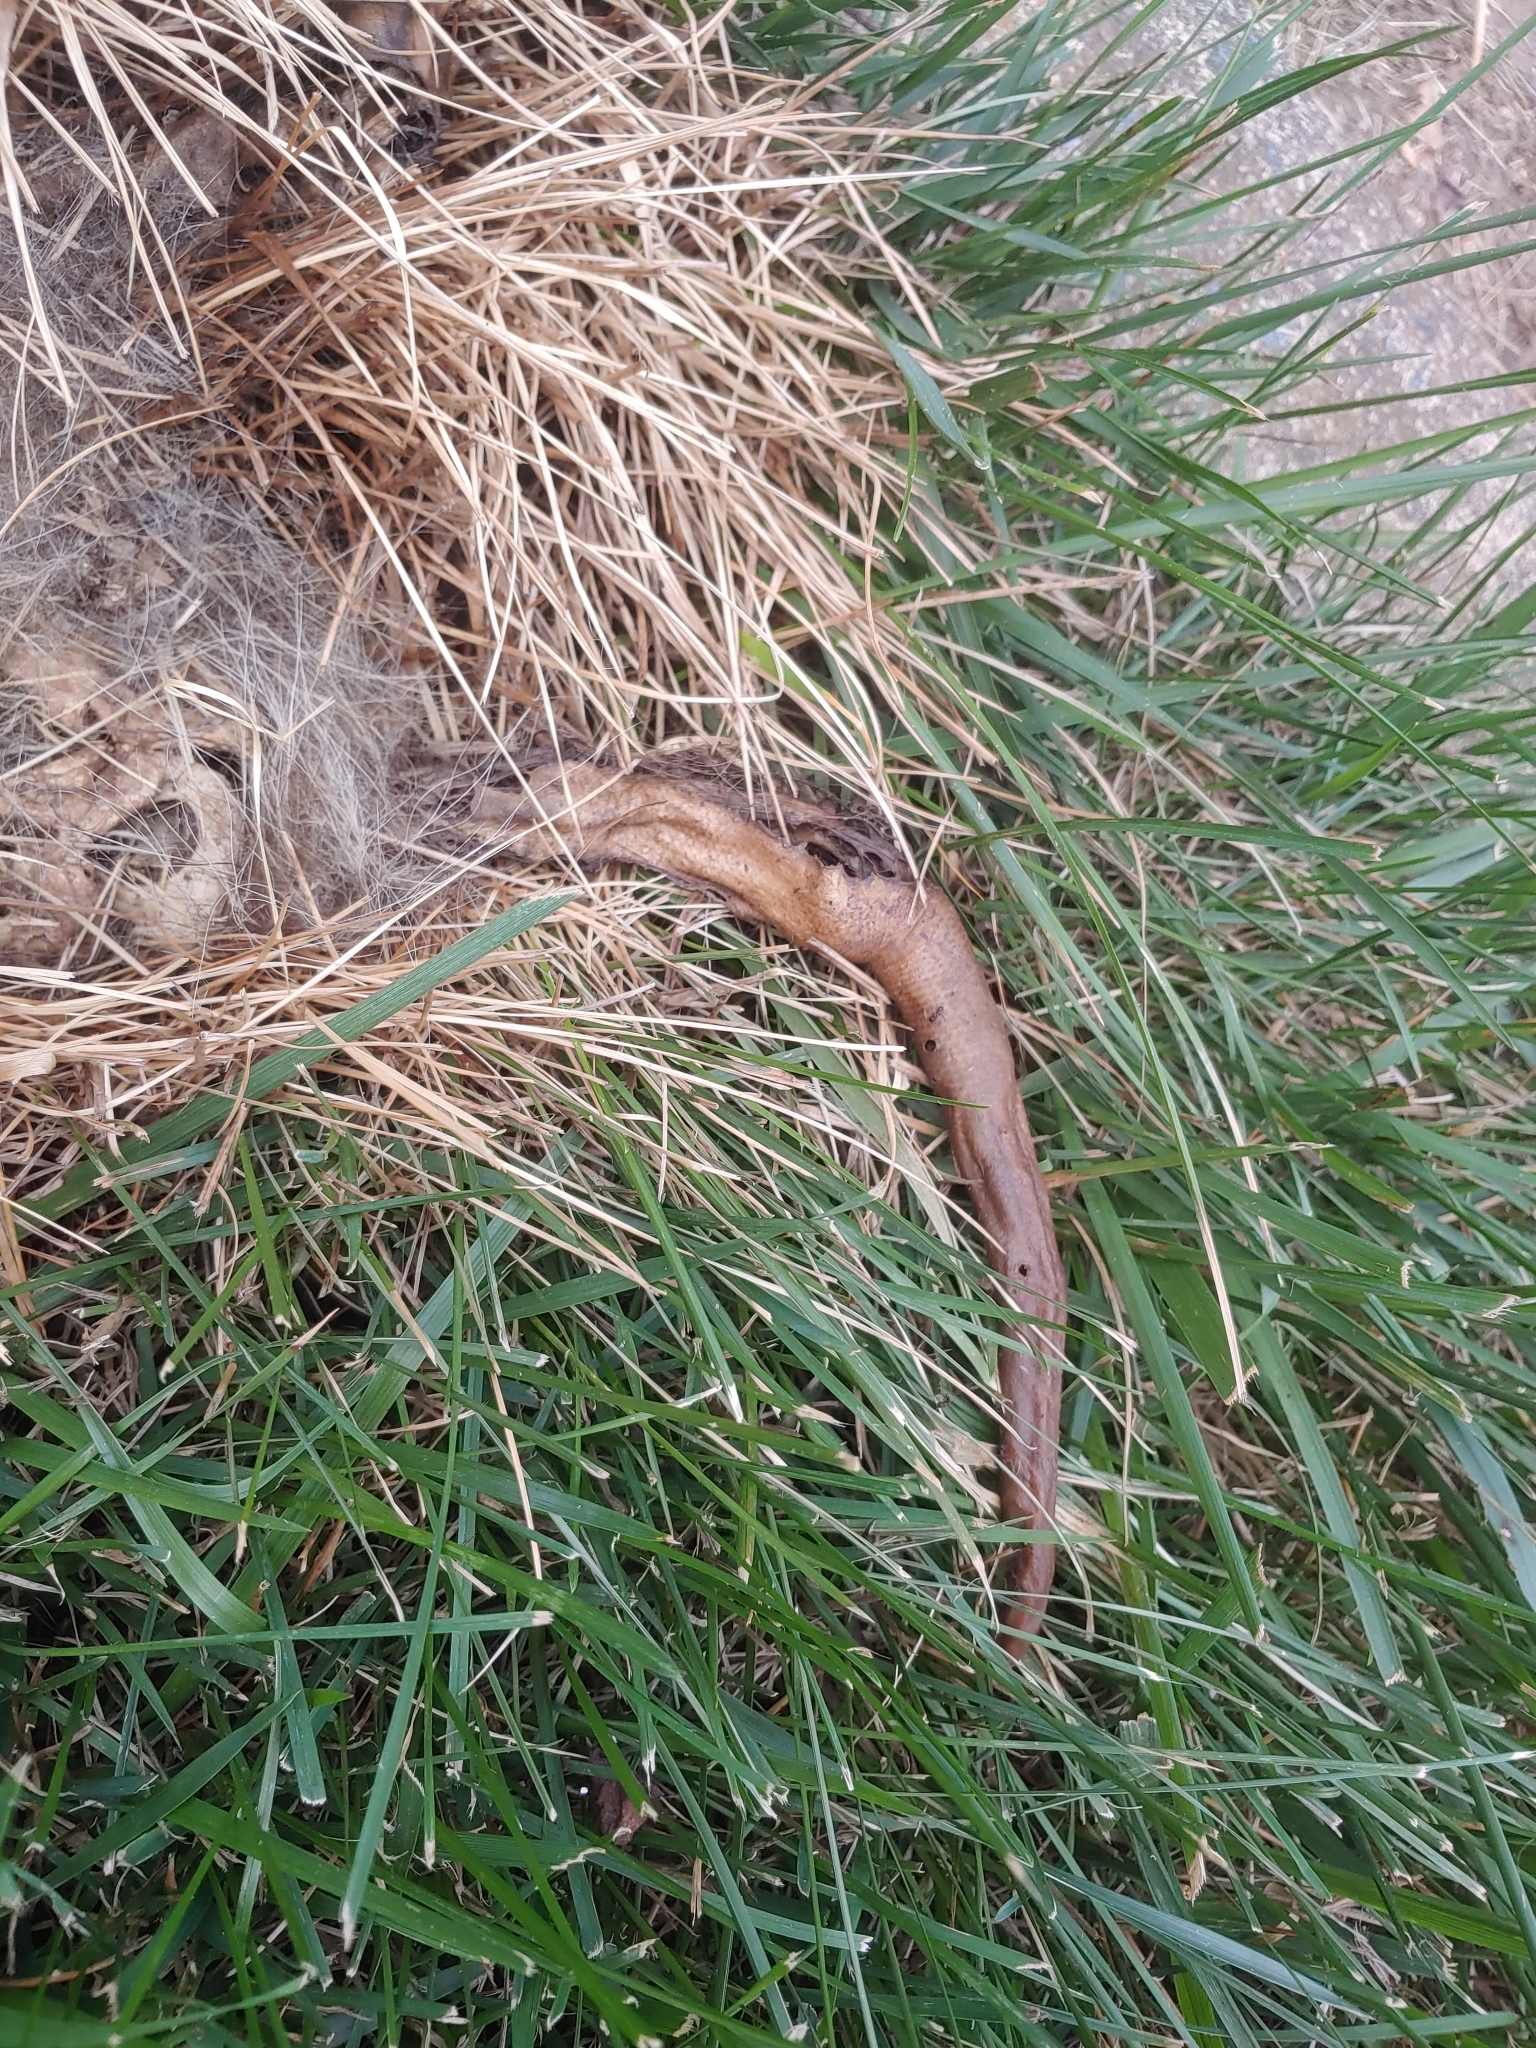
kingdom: Animalia
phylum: Chordata
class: Mammalia
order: Didelphimorphia
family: Didelphidae
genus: Didelphis
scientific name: Didelphis virginiana
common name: Virginia opossum
